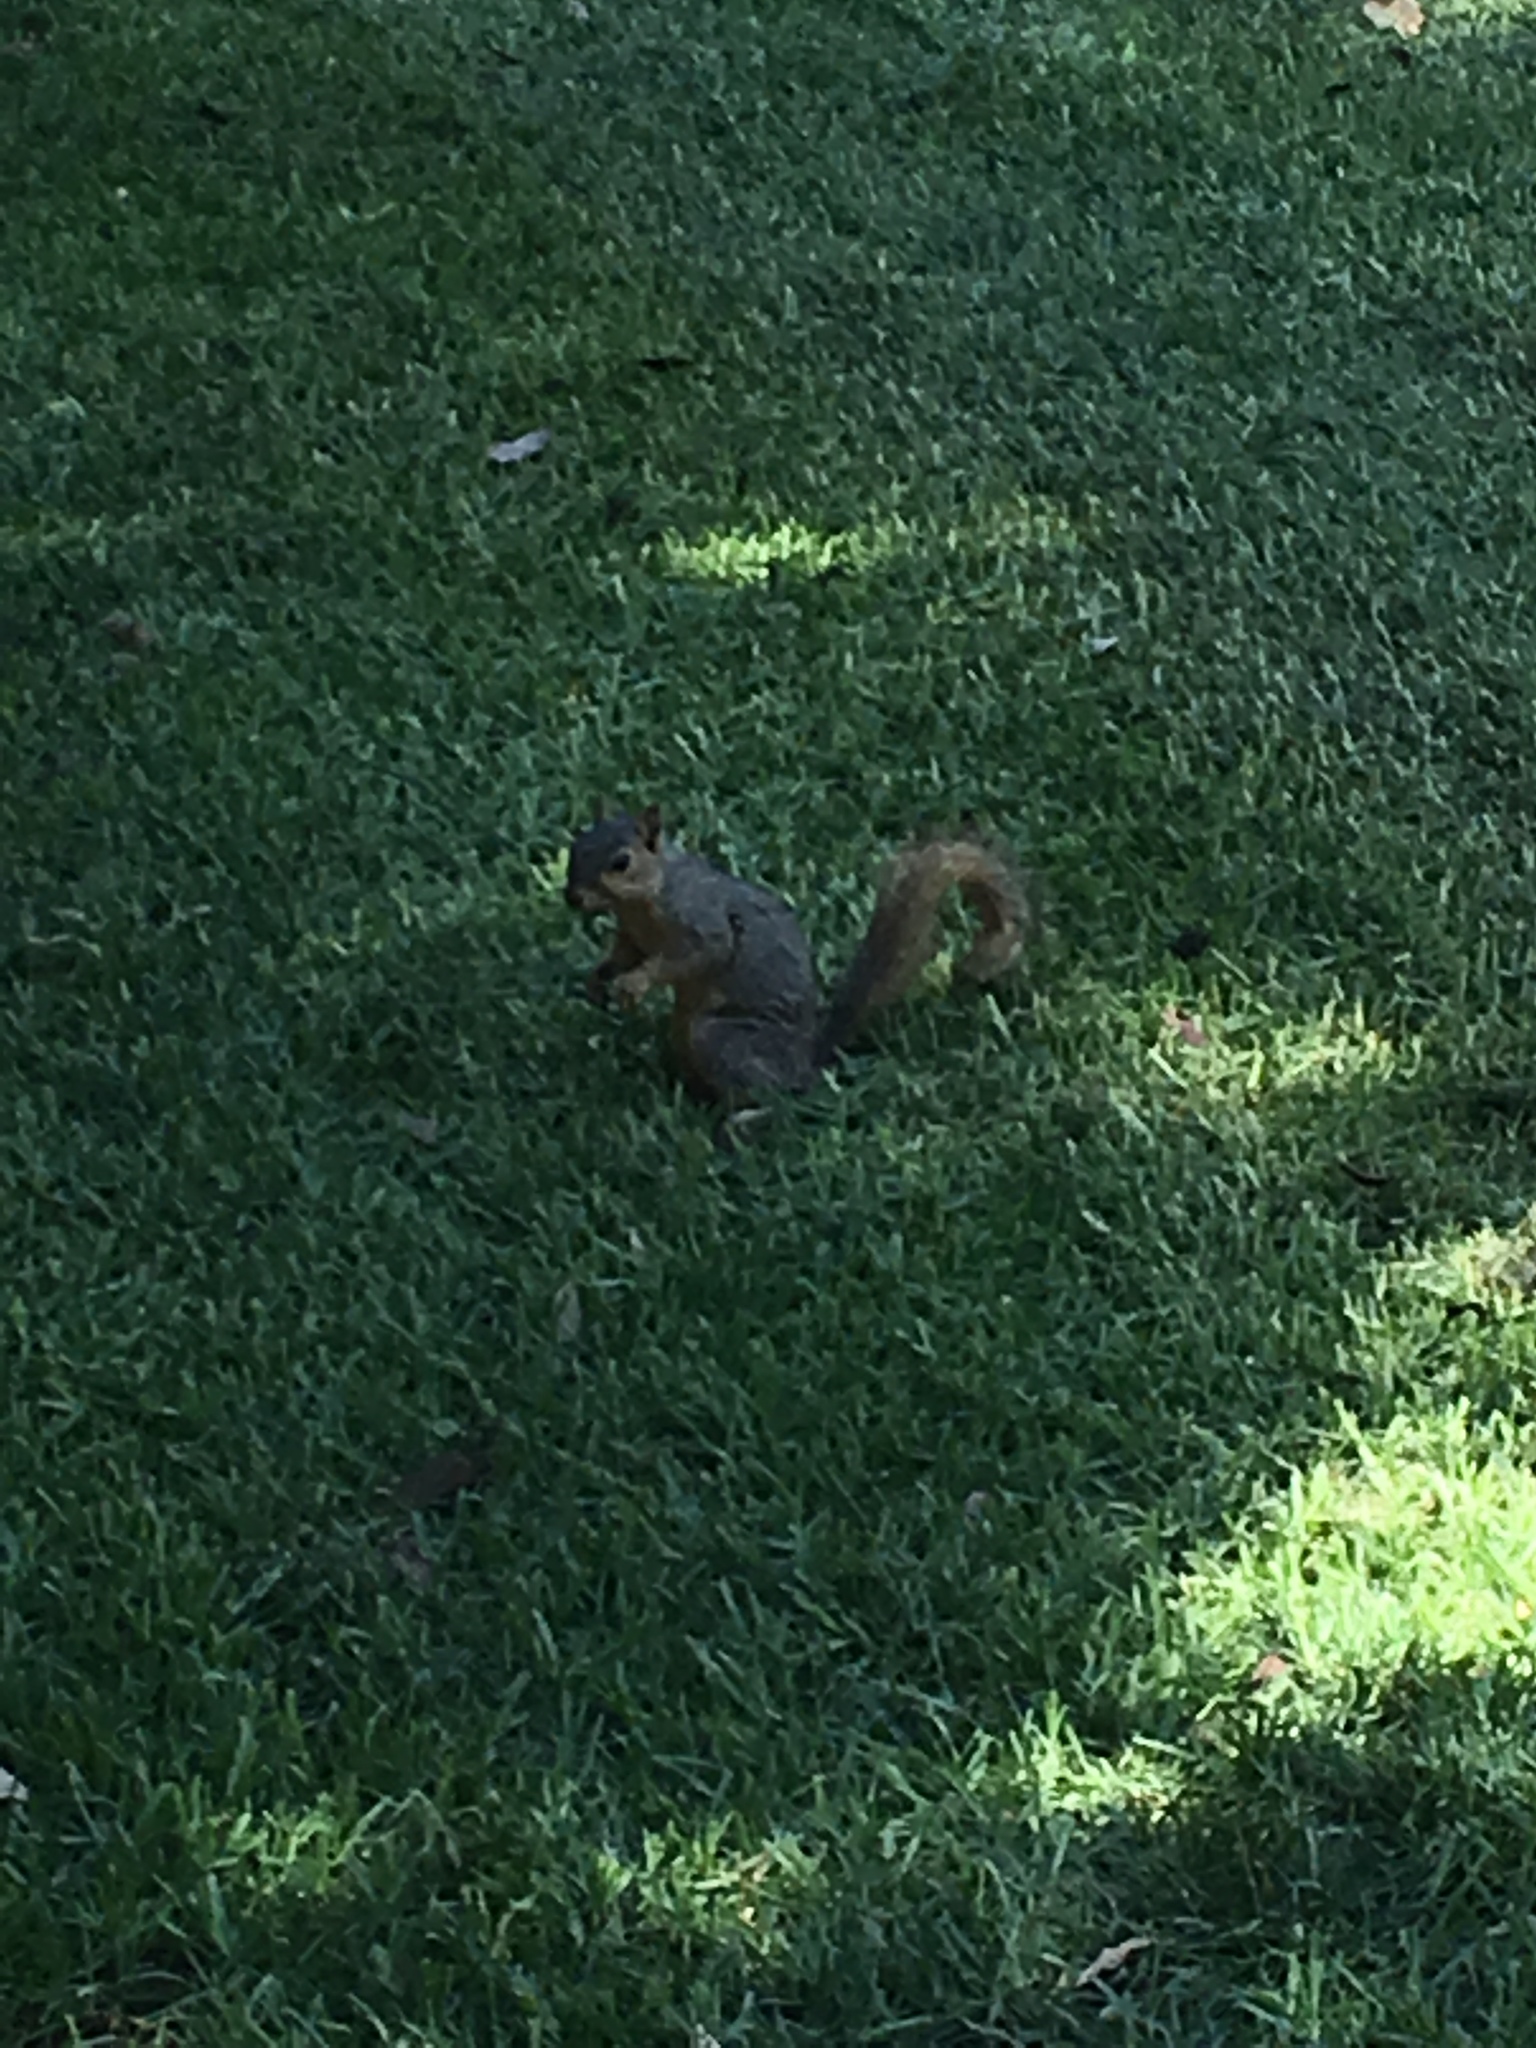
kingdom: Animalia
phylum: Chordata
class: Mammalia
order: Rodentia
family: Sciuridae
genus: Sciurus
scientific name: Sciurus niger
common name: Fox squirrel
